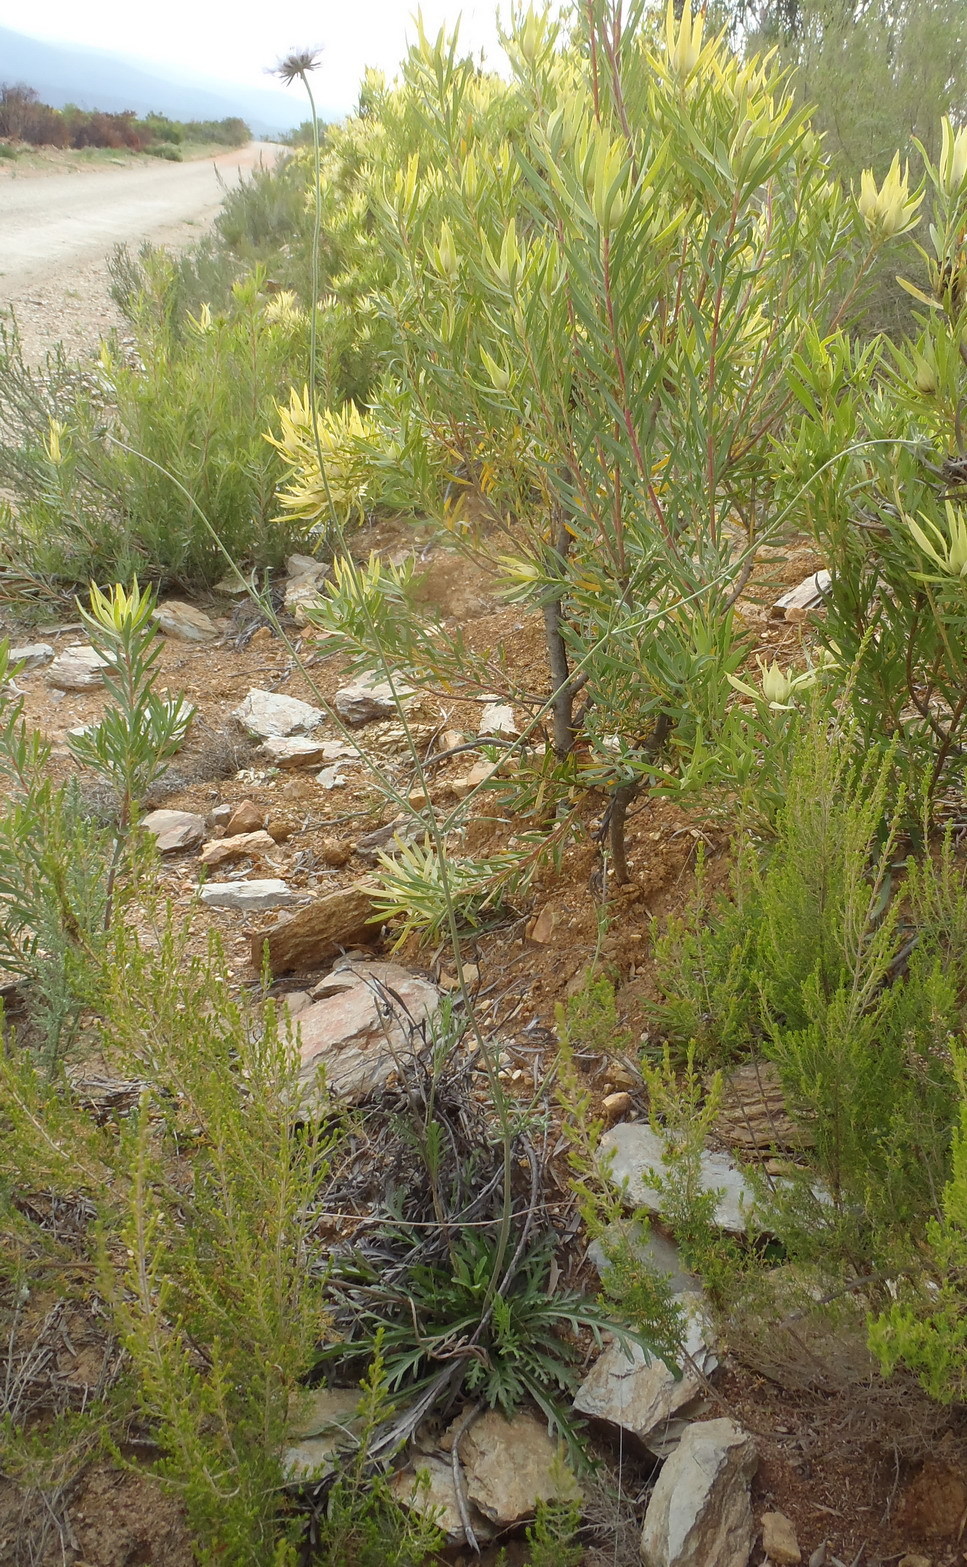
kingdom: Plantae
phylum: Tracheophyta
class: Magnoliopsida
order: Dipsacales
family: Caprifoliaceae
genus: Scabiosa
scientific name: Scabiosa columbaria
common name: Small scabious
